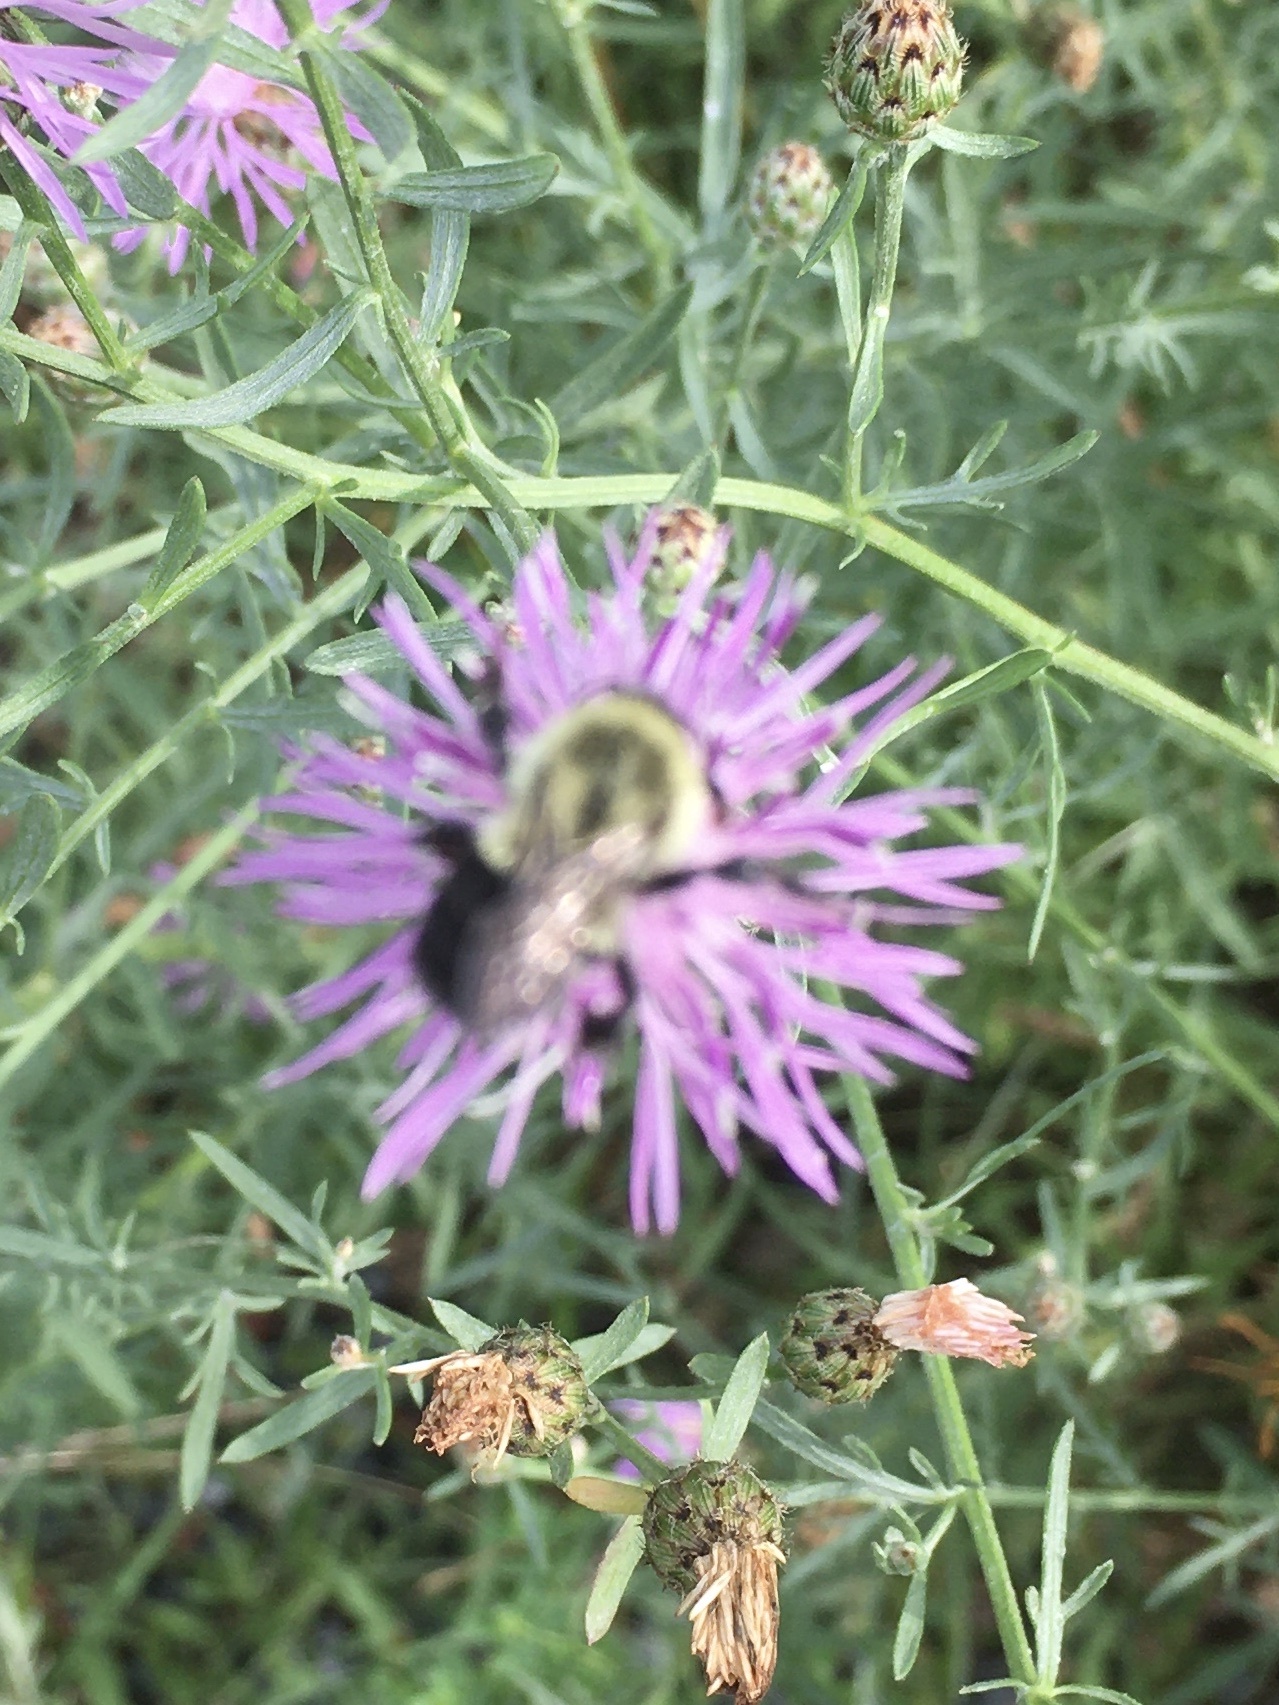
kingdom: Animalia
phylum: Arthropoda
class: Insecta
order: Hymenoptera
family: Apidae
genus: Bombus
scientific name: Bombus impatiens
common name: Common eastern bumble bee
